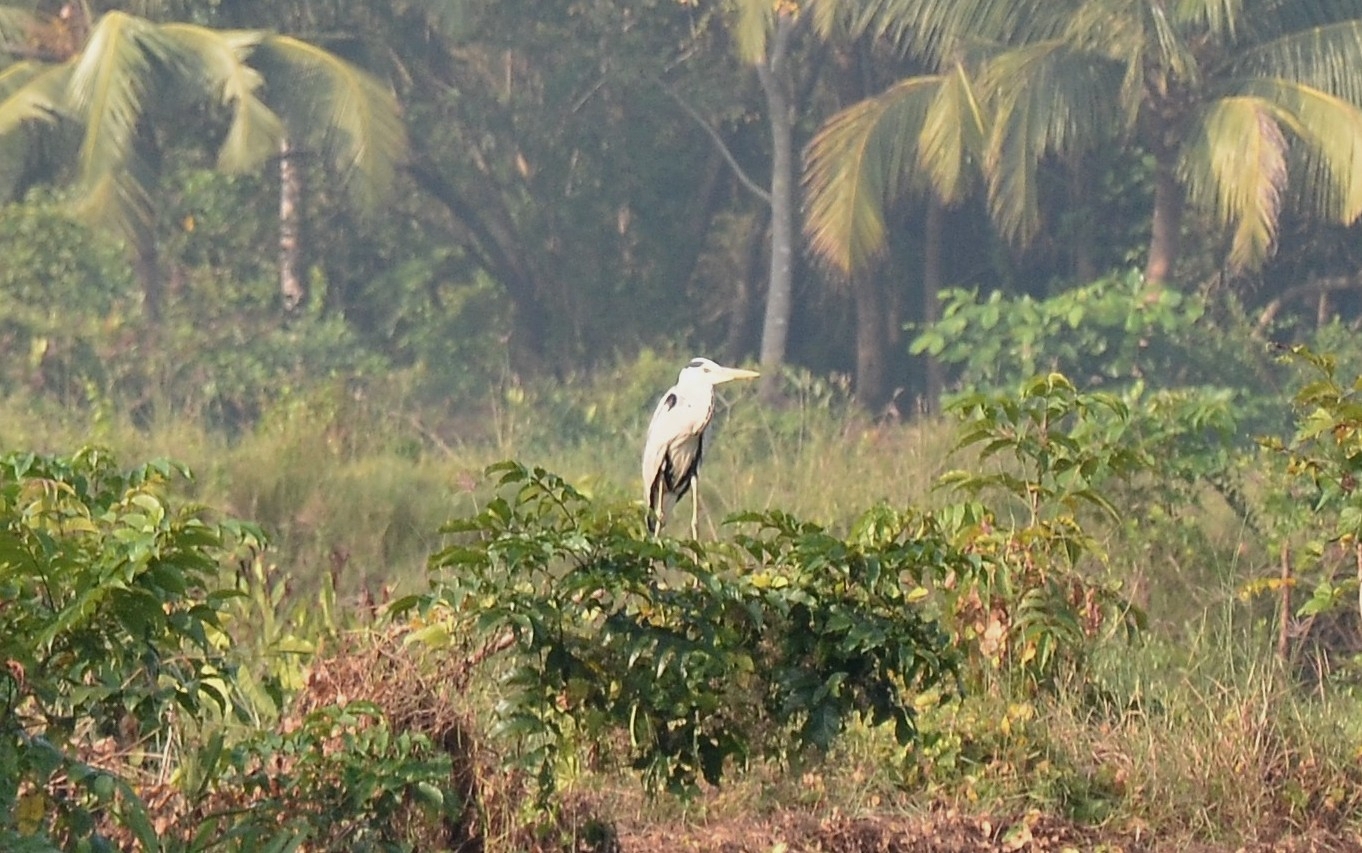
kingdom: Animalia
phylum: Chordata
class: Aves
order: Pelecaniformes
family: Ardeidae
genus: Ardea
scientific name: Ardea cinerea
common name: Grey heron
